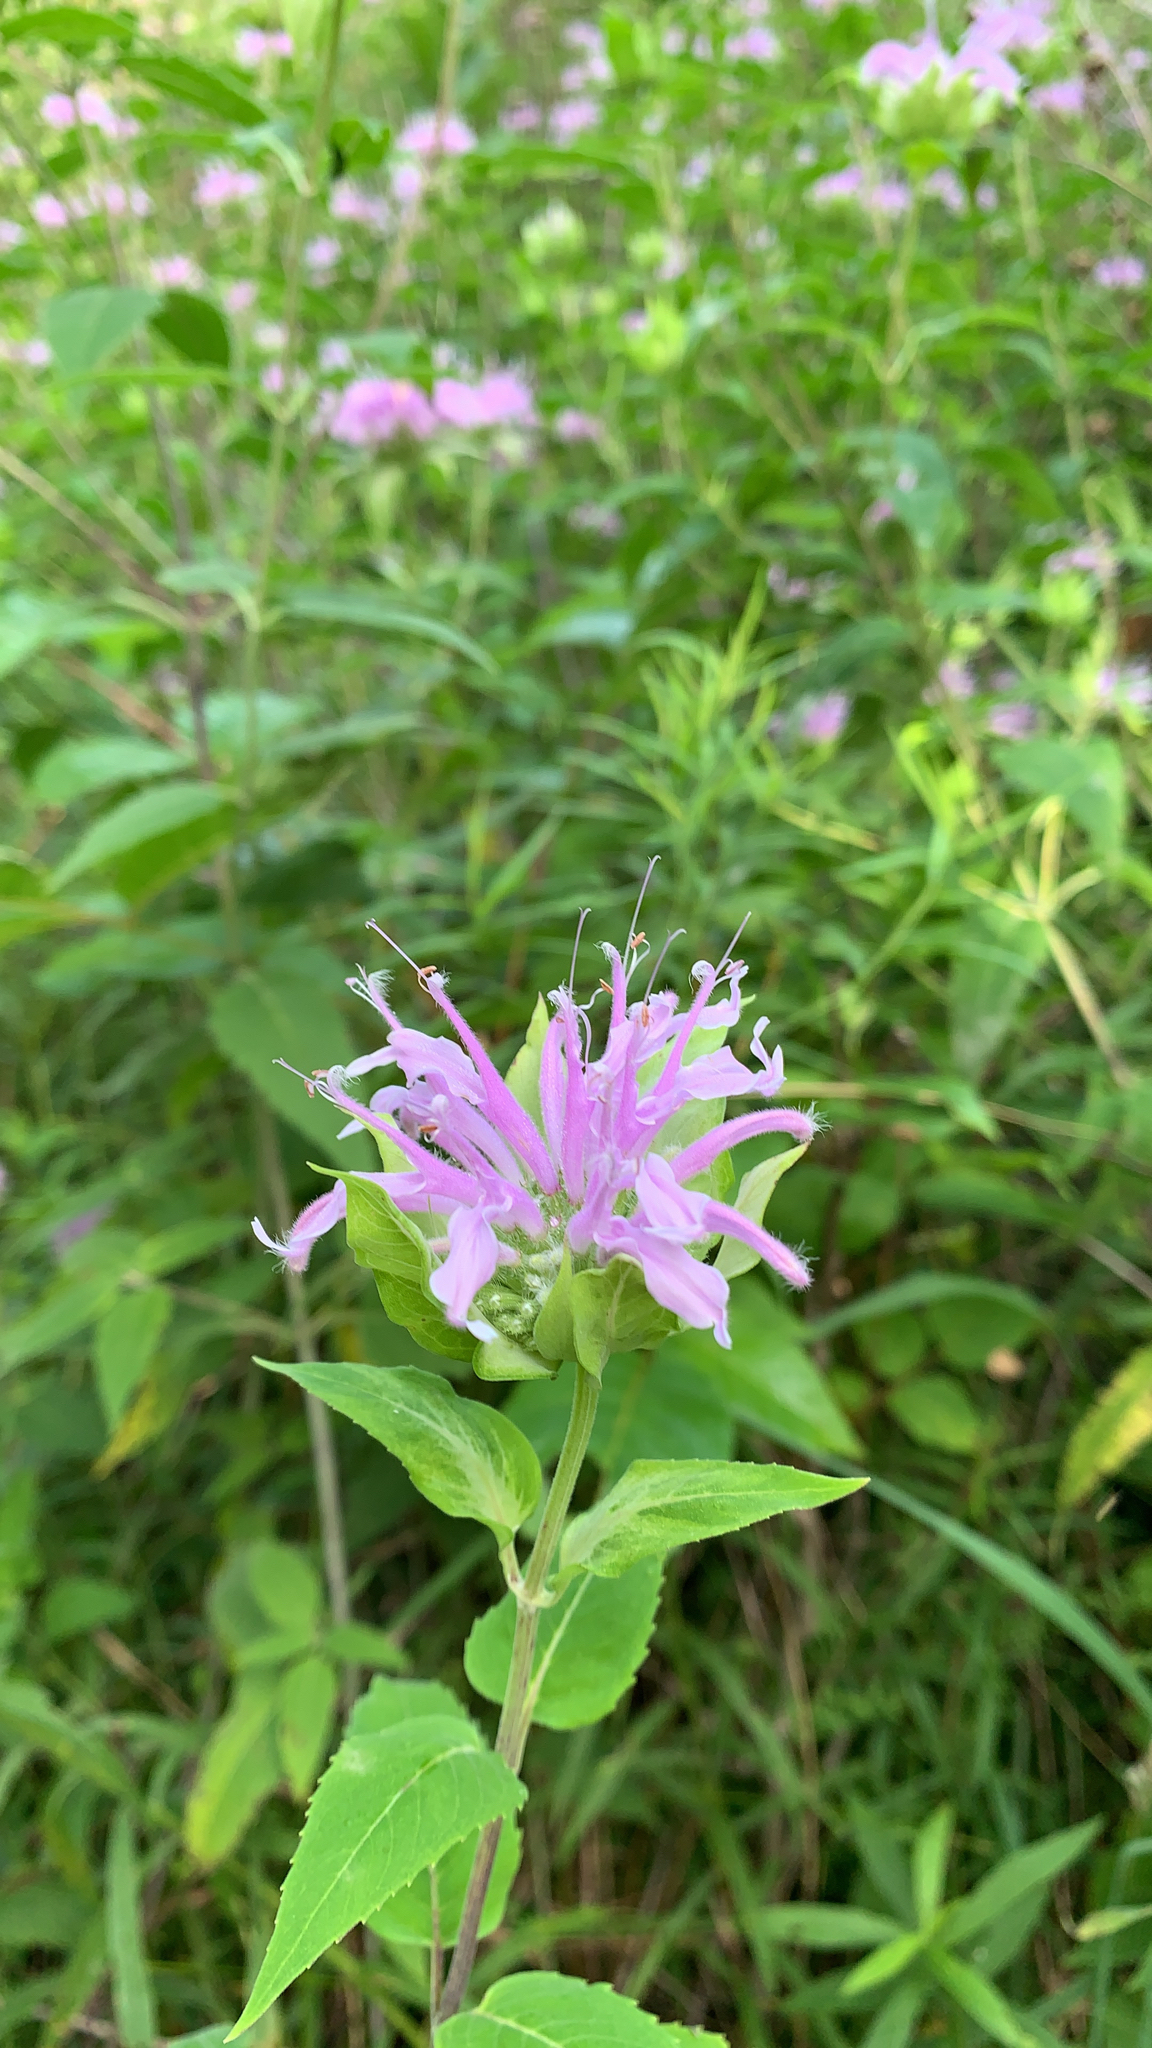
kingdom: Plantae
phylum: Tracheophyta
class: Magnoliopsida
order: Lamiales
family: Lamiaceae
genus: Monarda
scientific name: Monarda fistulosa
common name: Purple beebalm
